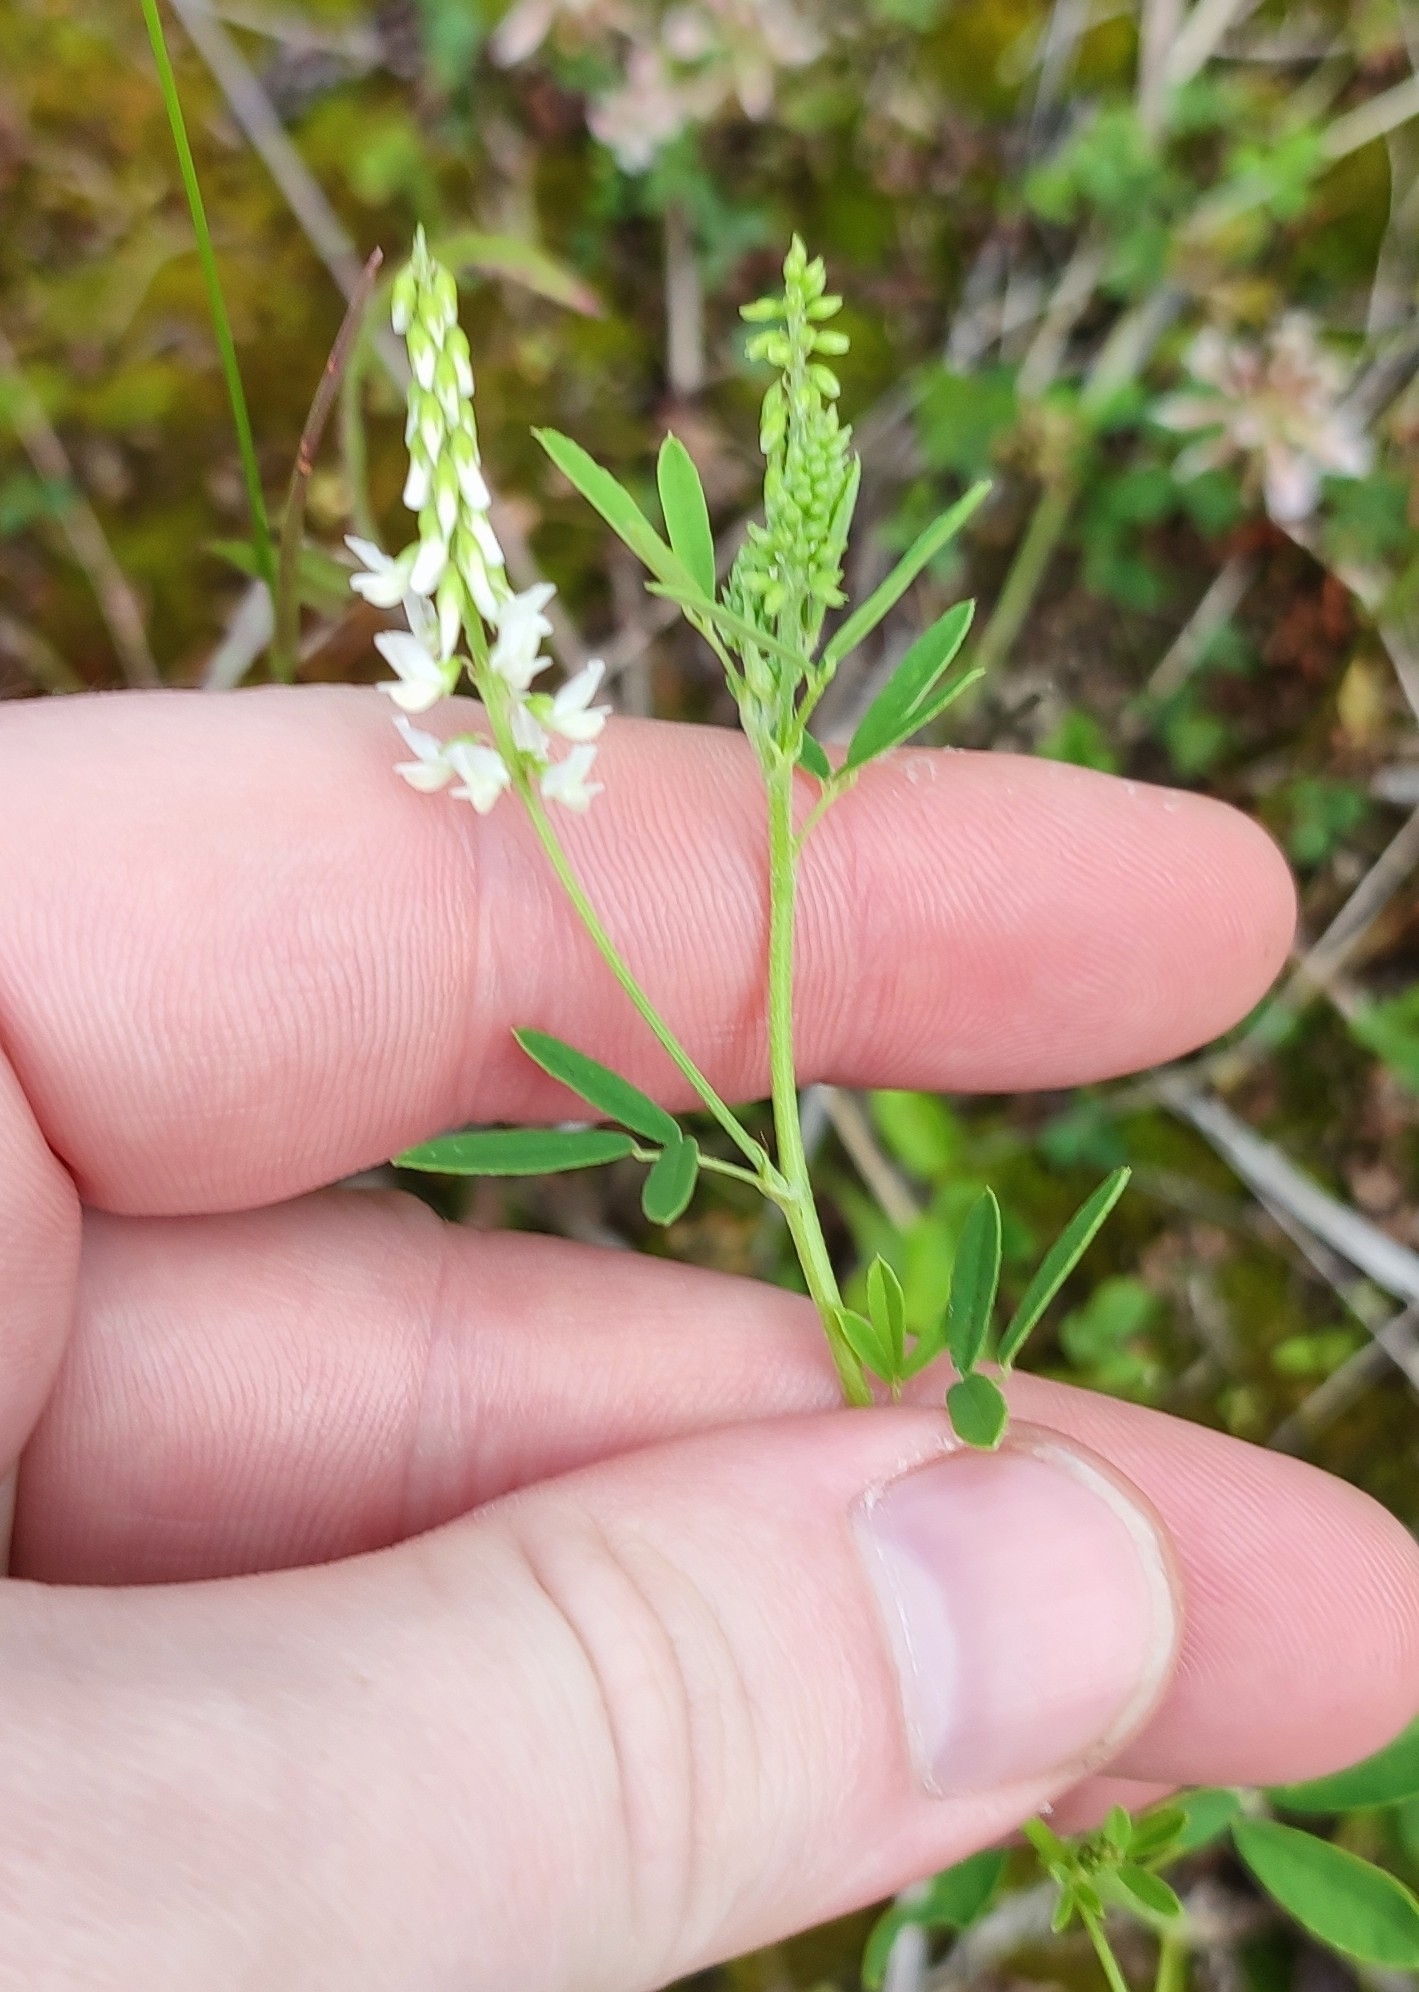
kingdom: Plantae
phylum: Tracheophyta
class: Magnoliopsida
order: Fabales
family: Fabaceae
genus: Melilotus
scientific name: Melilotus albus
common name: White melilot
